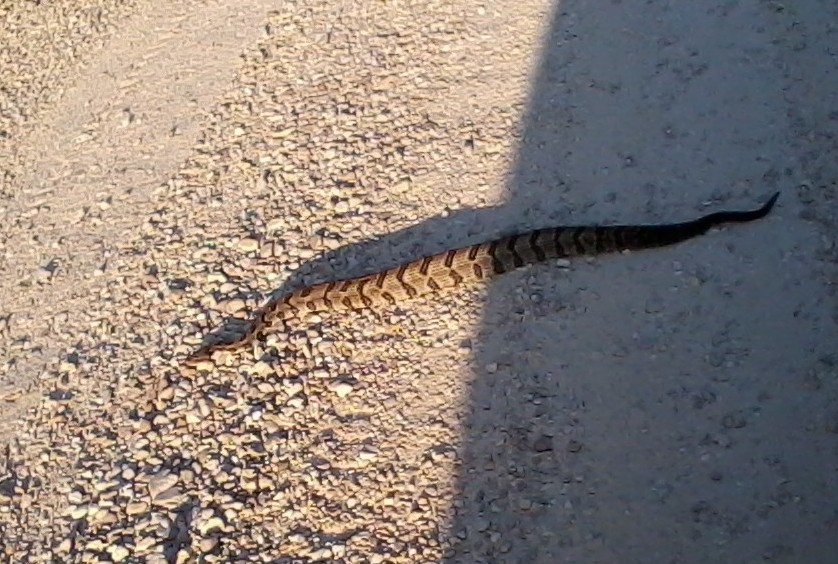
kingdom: Animalia
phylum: Chordata
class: Squamata
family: Viperidae
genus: Crotalus
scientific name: Crotalus horridus
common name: Timber rattlesnake
